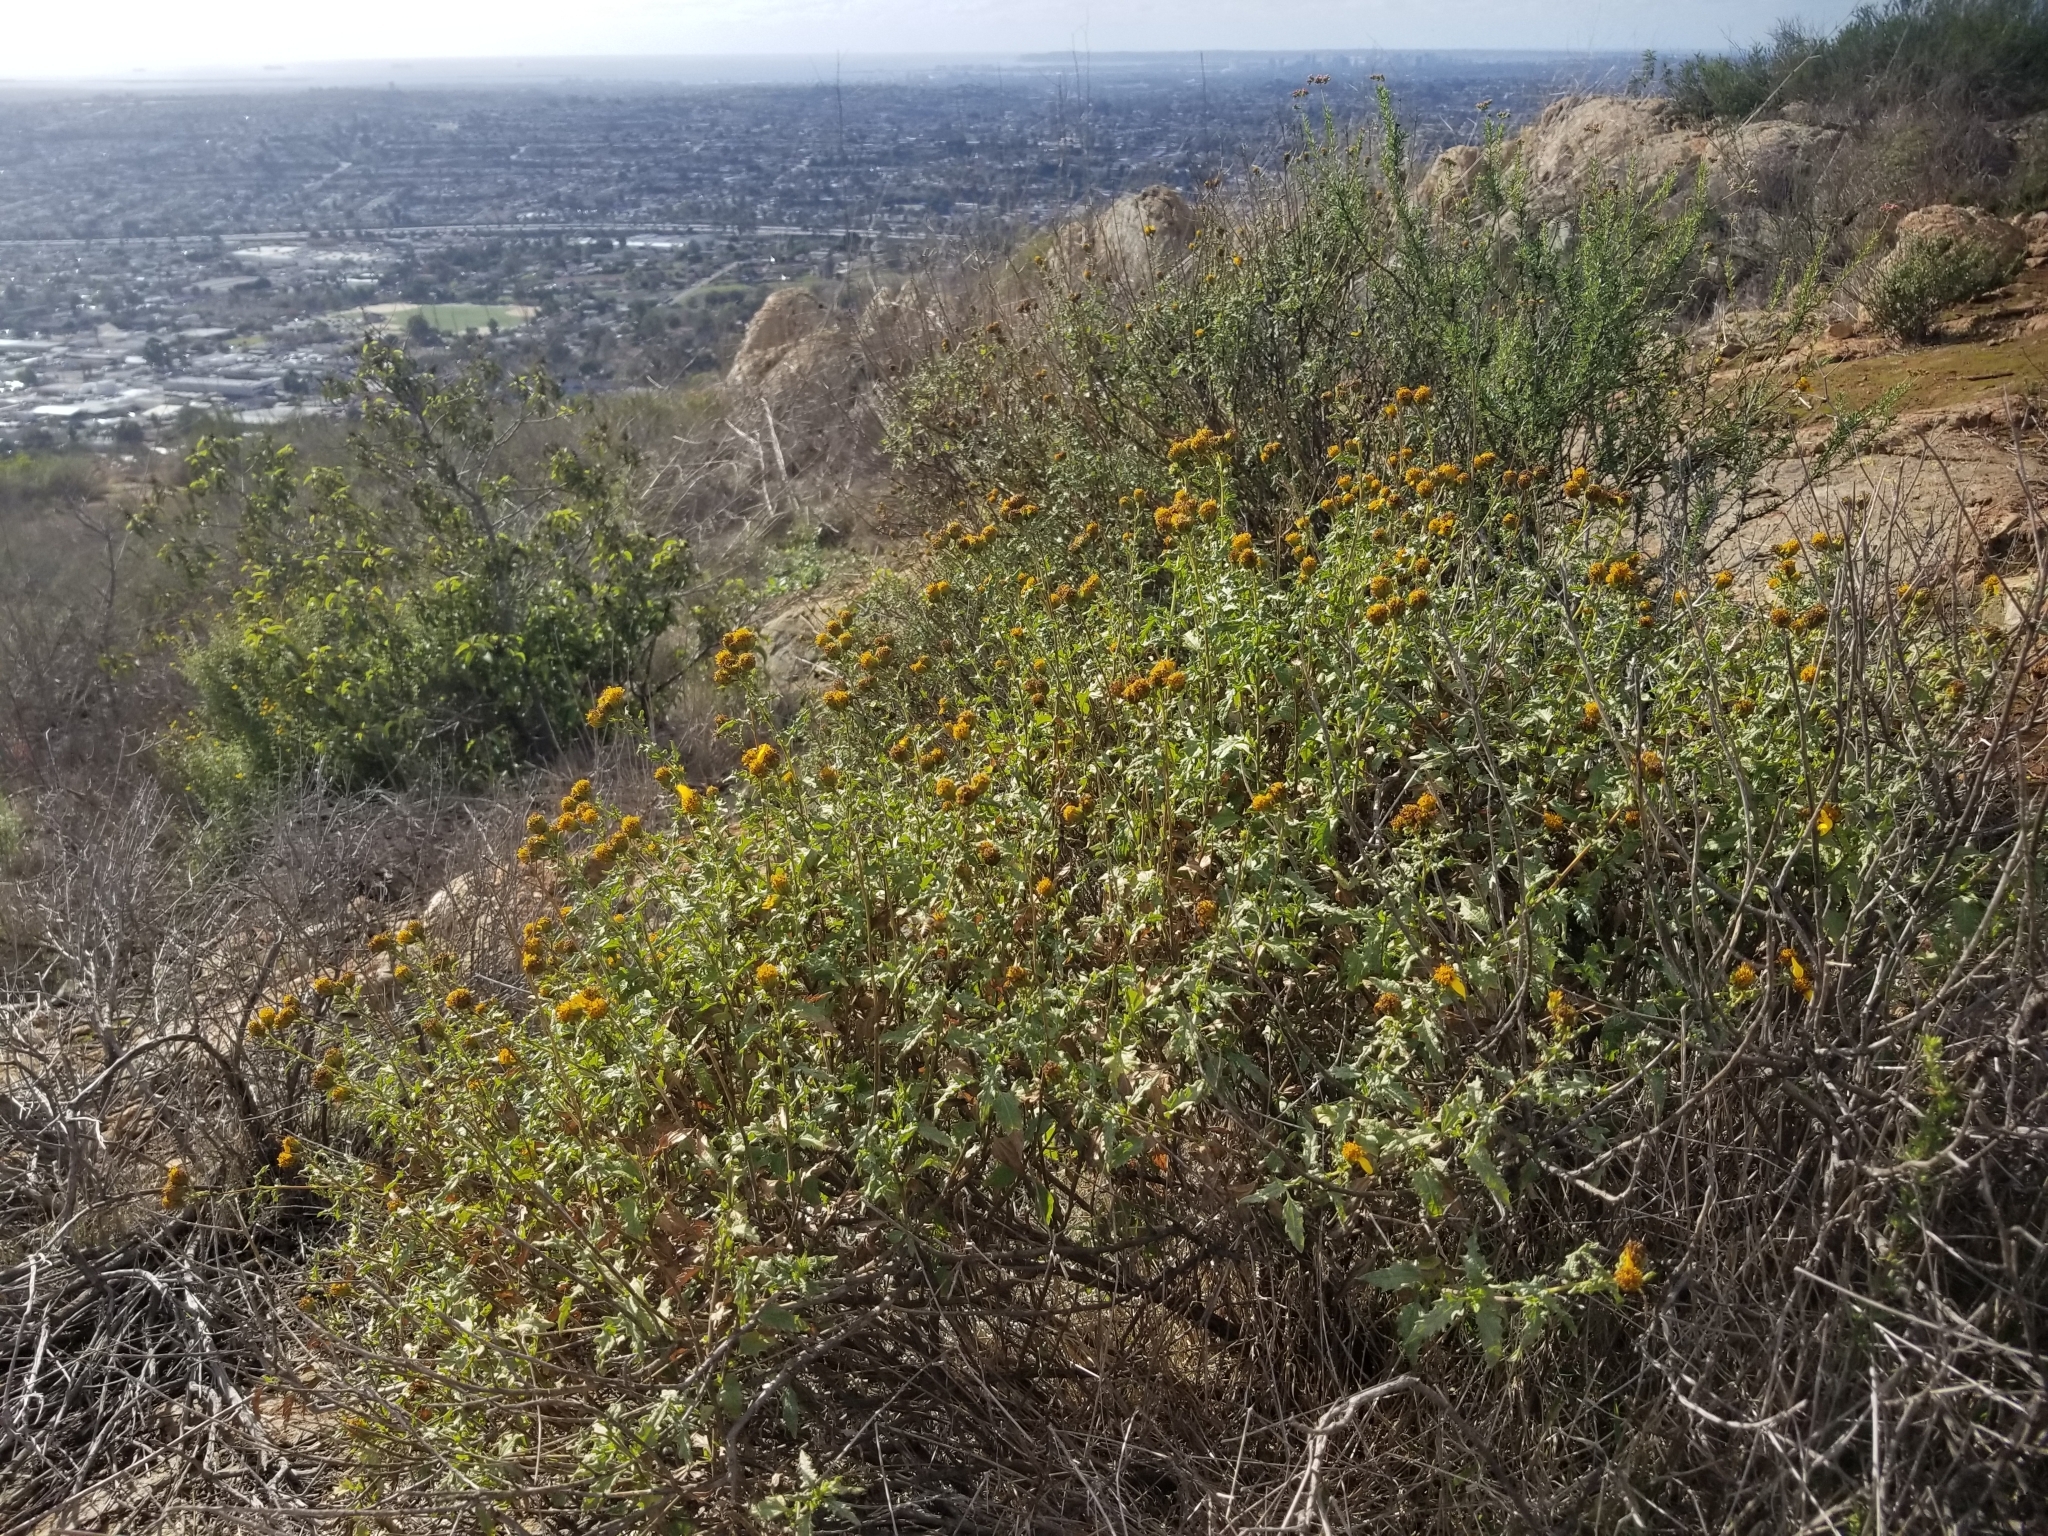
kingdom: Plantae
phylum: Tracheophyta
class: Magnoliopsida
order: Asterales
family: Asteraceae
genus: Bahiopsis
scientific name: Bahiopsis laciniata
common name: San diego county viguiera
